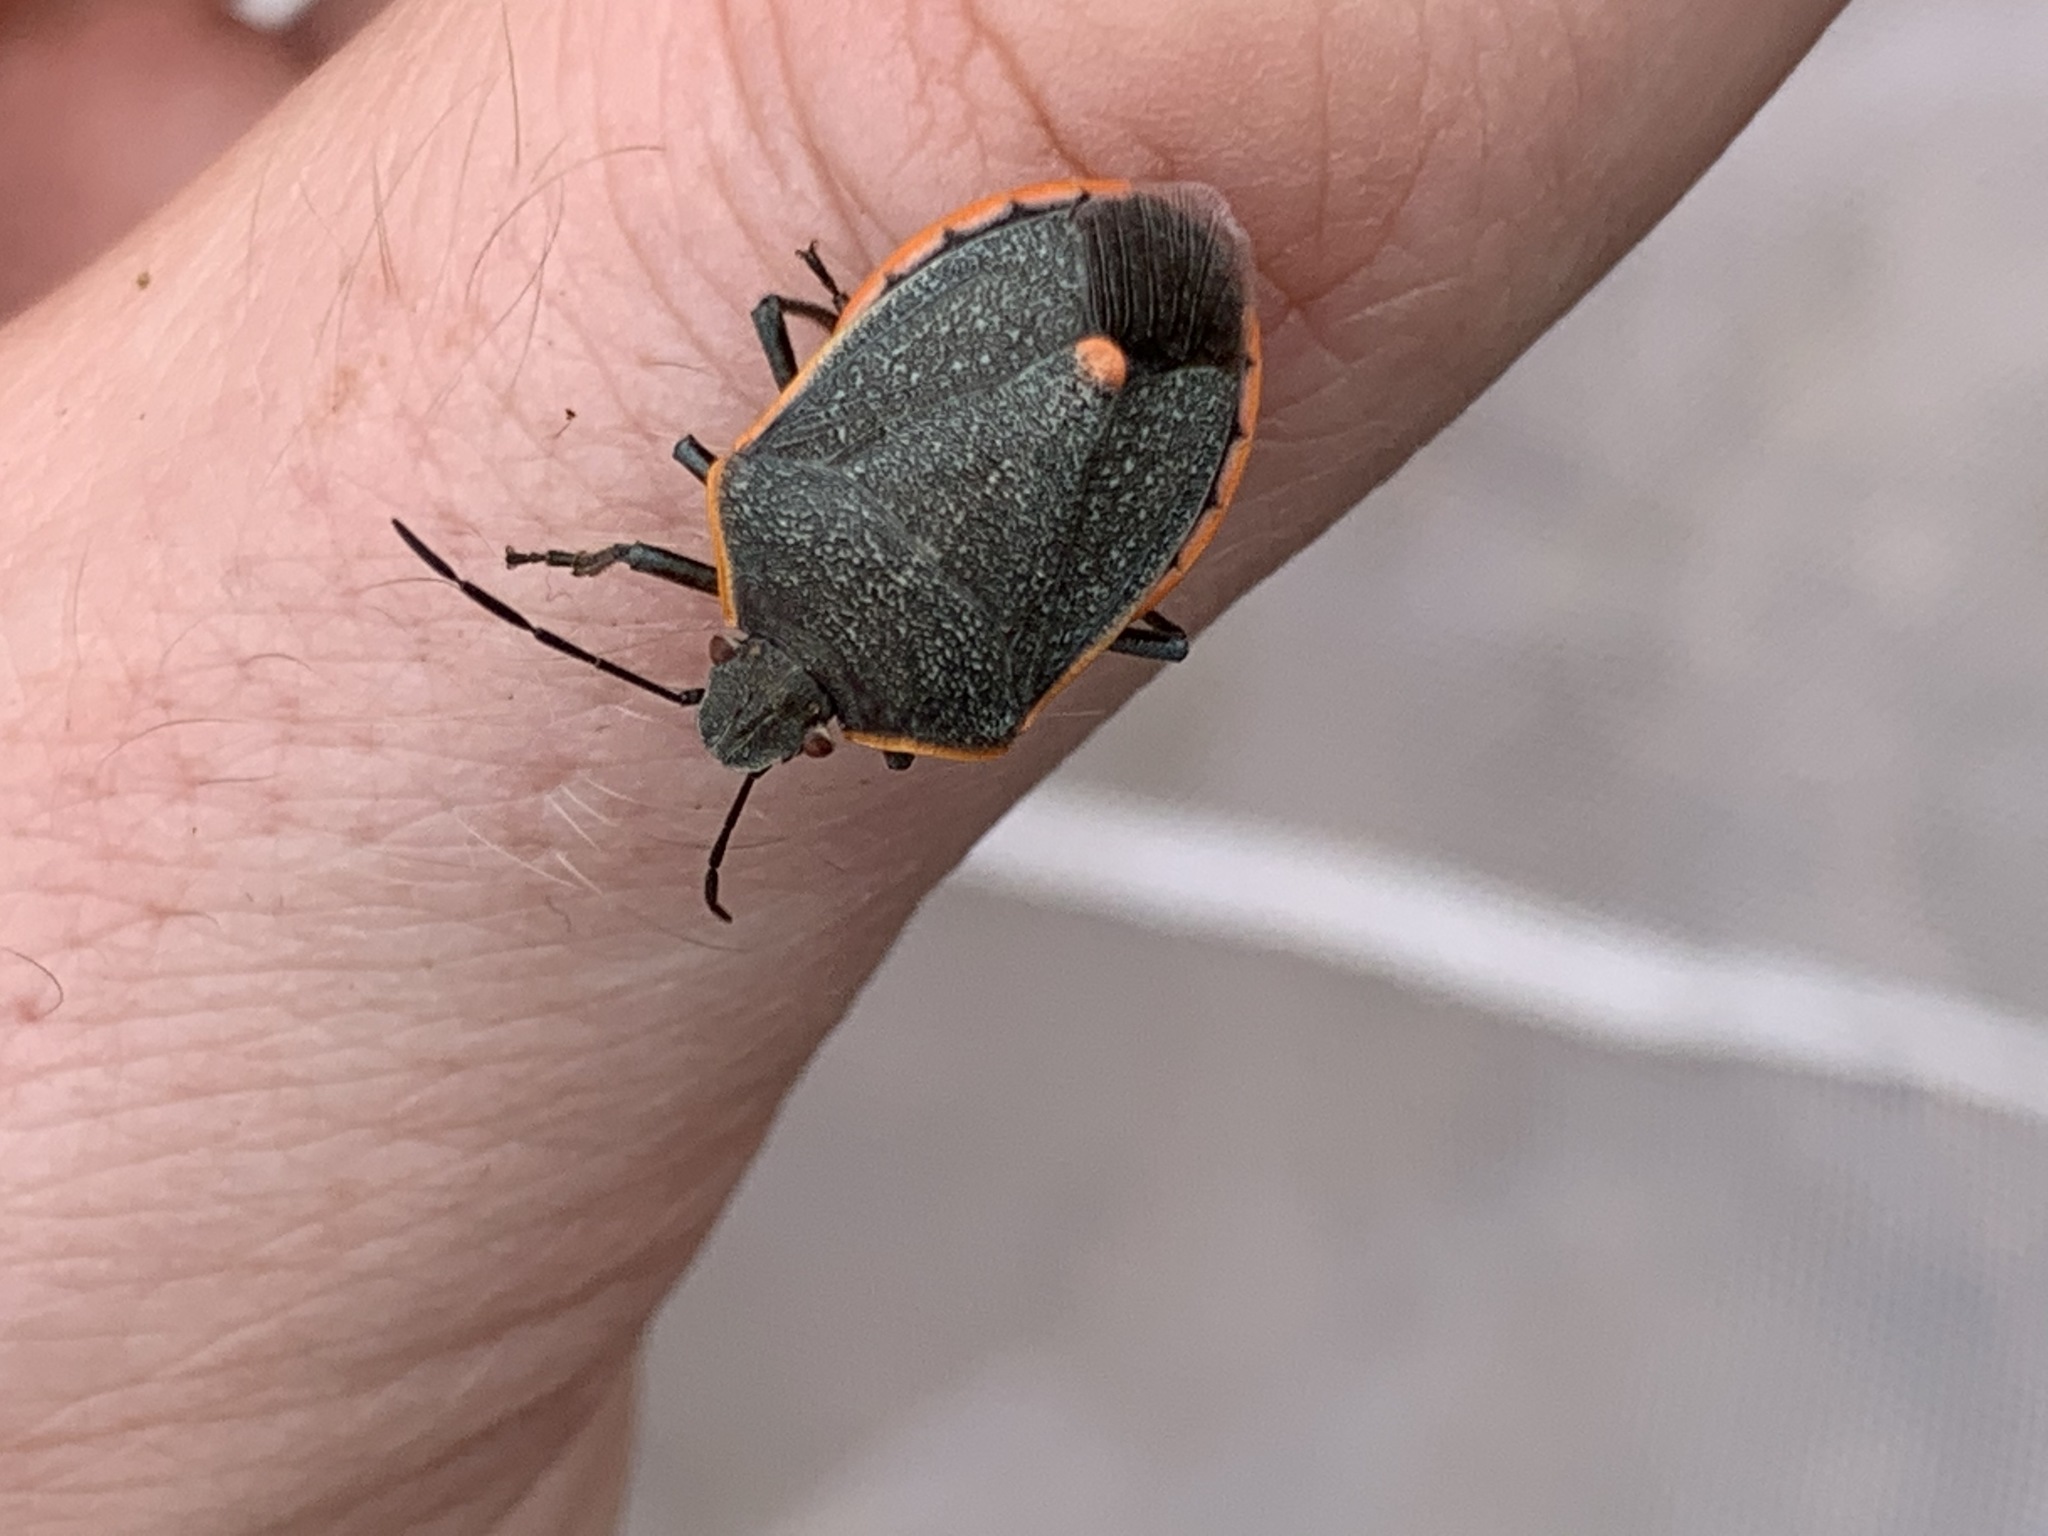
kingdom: Animalia
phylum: Arthropoda
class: Insecta
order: Hemiptera
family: Pentatomidae
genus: Chlorochroa
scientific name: Chlorochroa ligata
